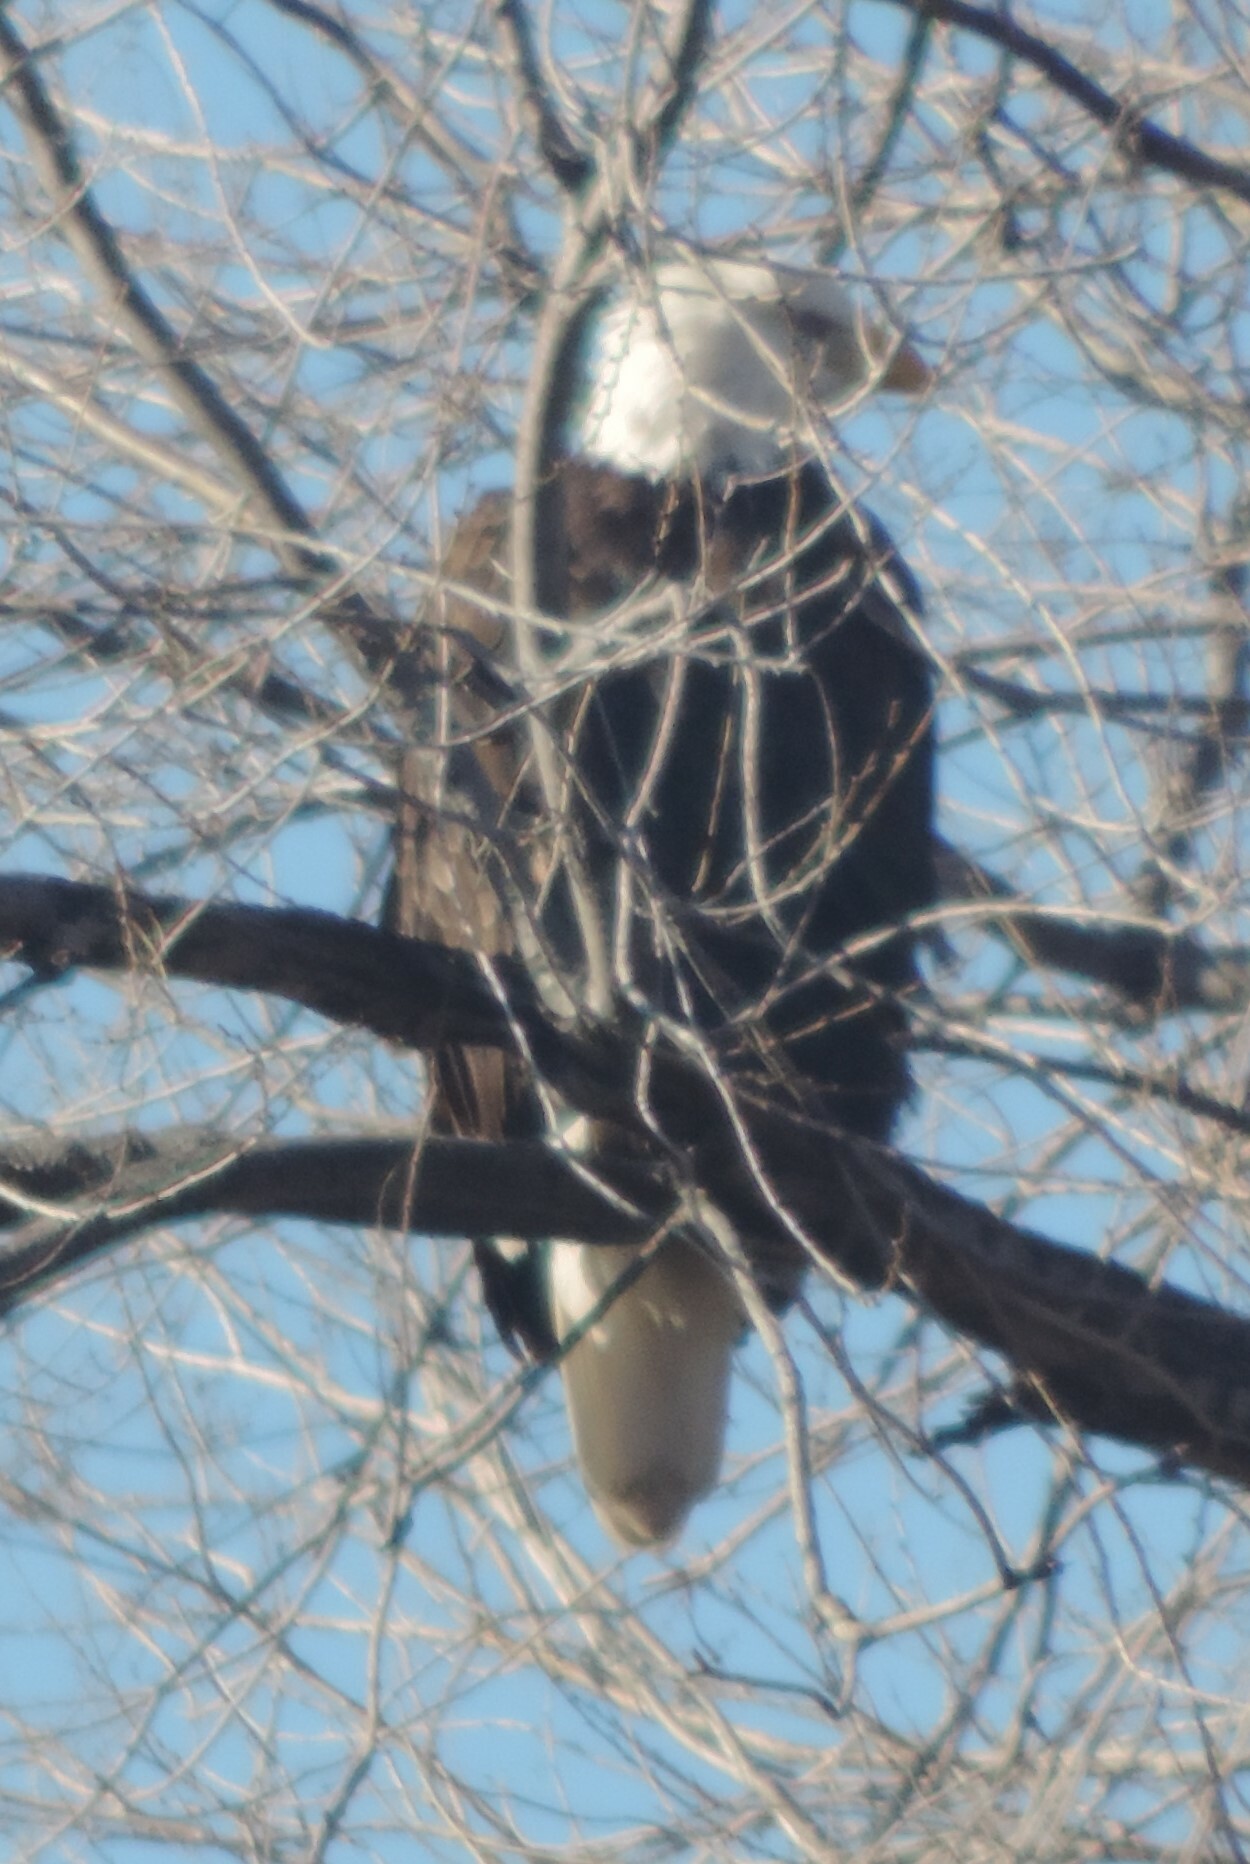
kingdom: Animalia
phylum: Chordata
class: Aves
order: Accipitriformes
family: Accipitridae
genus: Haliaeetus
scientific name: Haliaeetus leucocephalus
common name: Bald eagle
